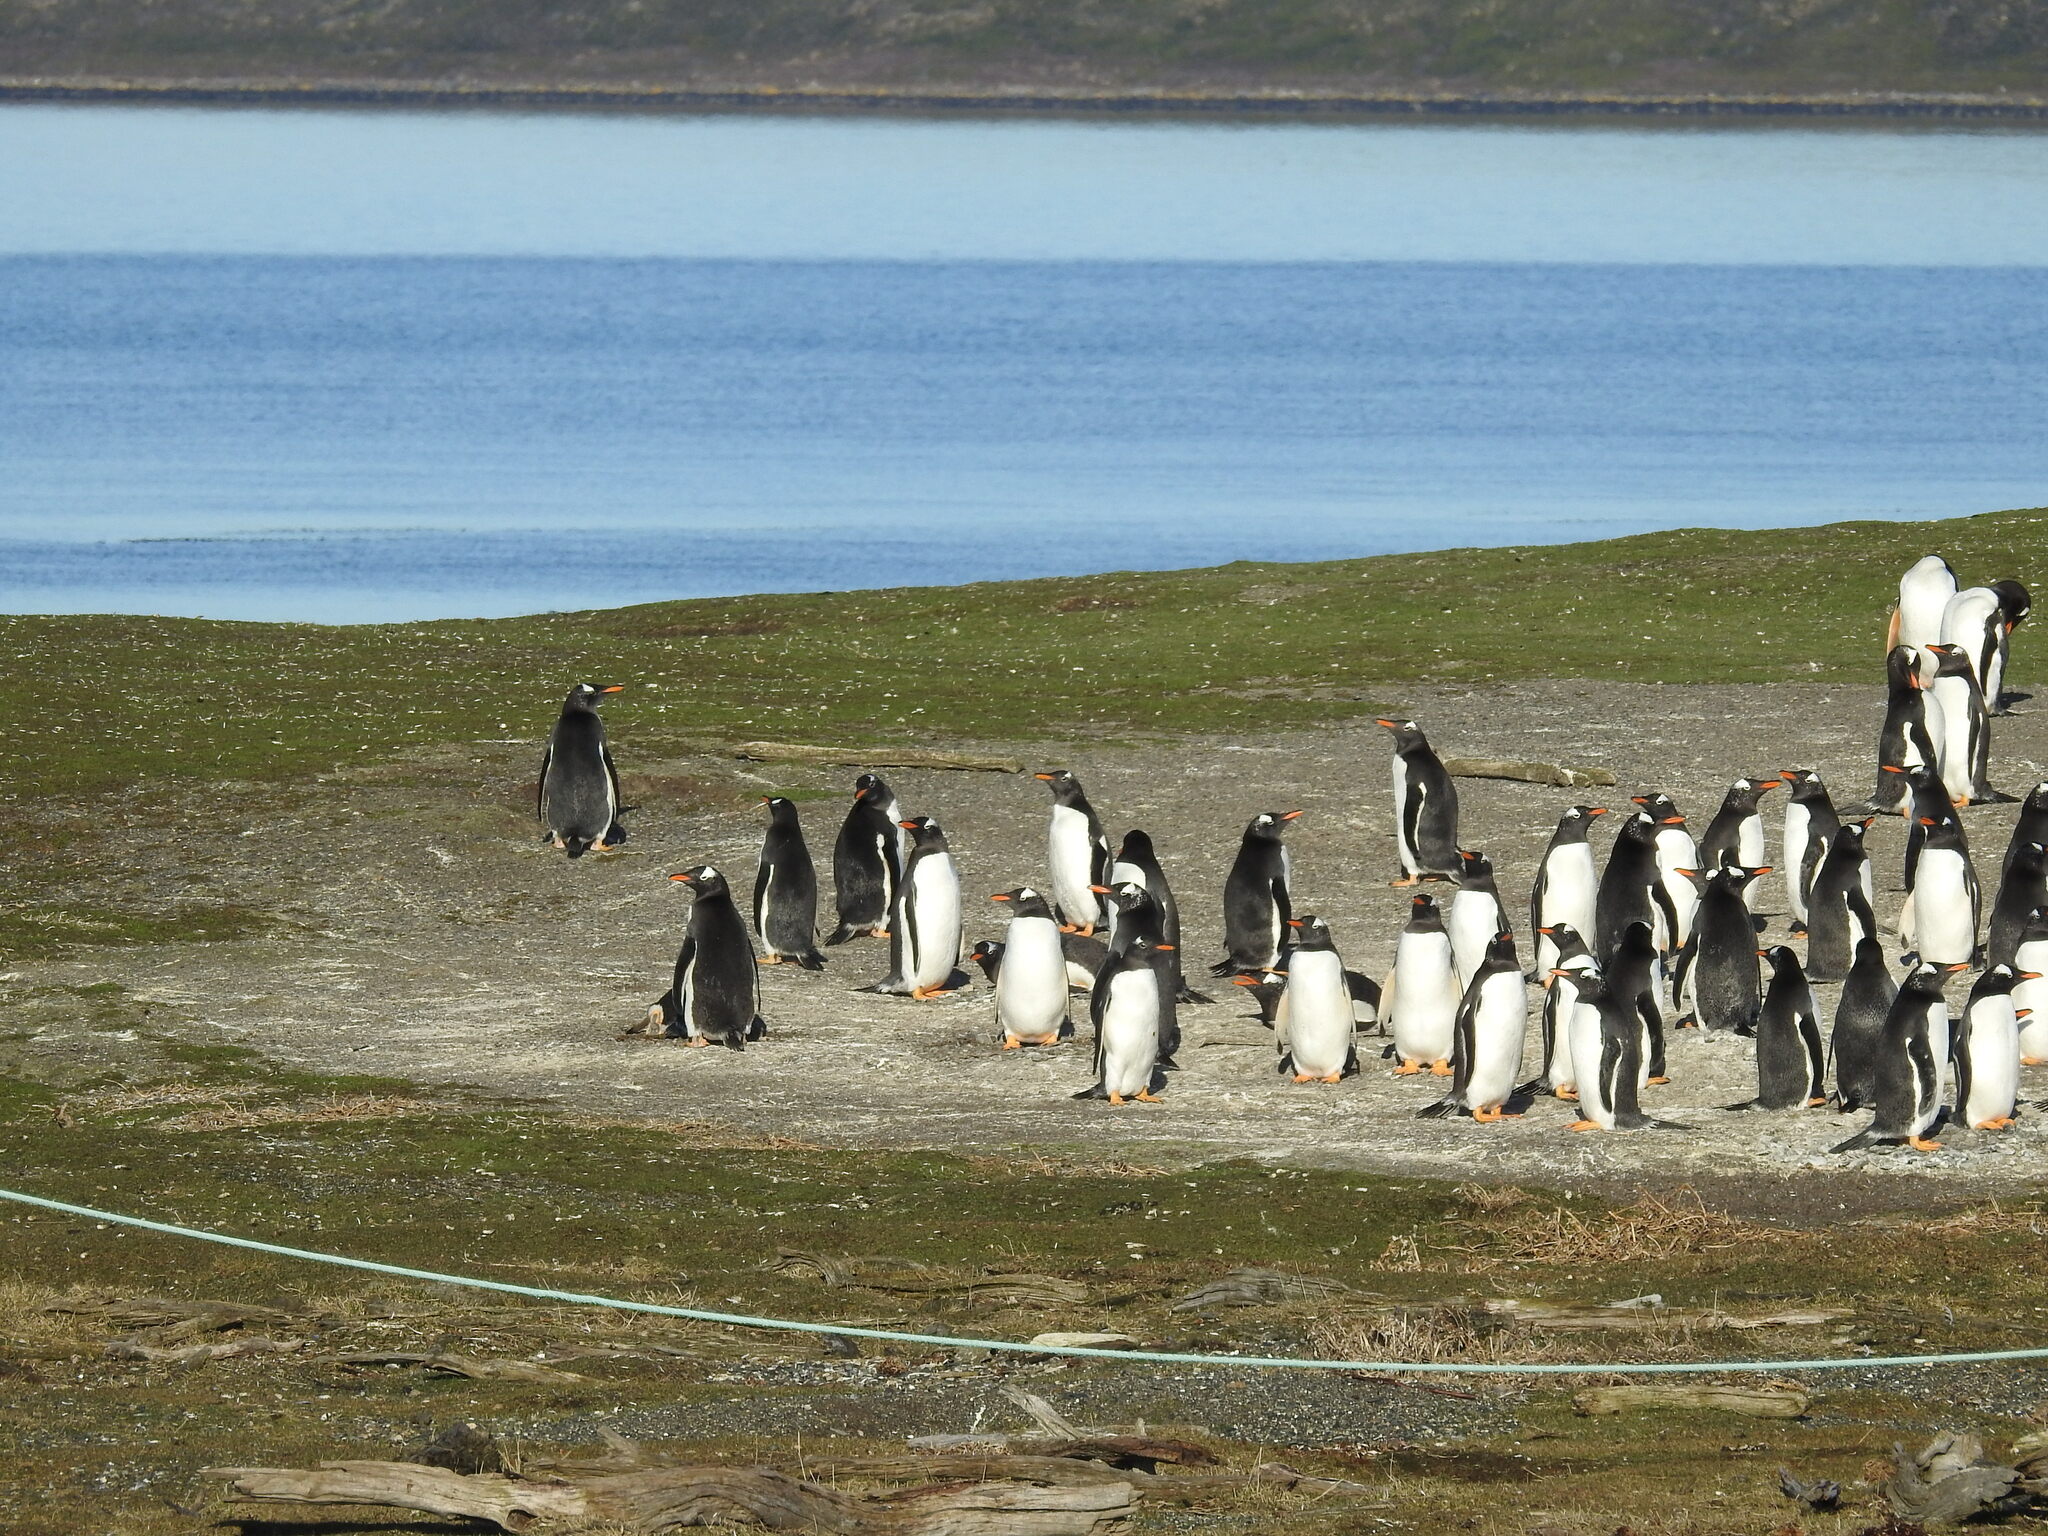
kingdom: Animalia
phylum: Chordata
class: Aves
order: Sphenisciformes
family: Spheniscidae
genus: Pygoscelis
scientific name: Pygoscelis papua
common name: Gentoo penguin
